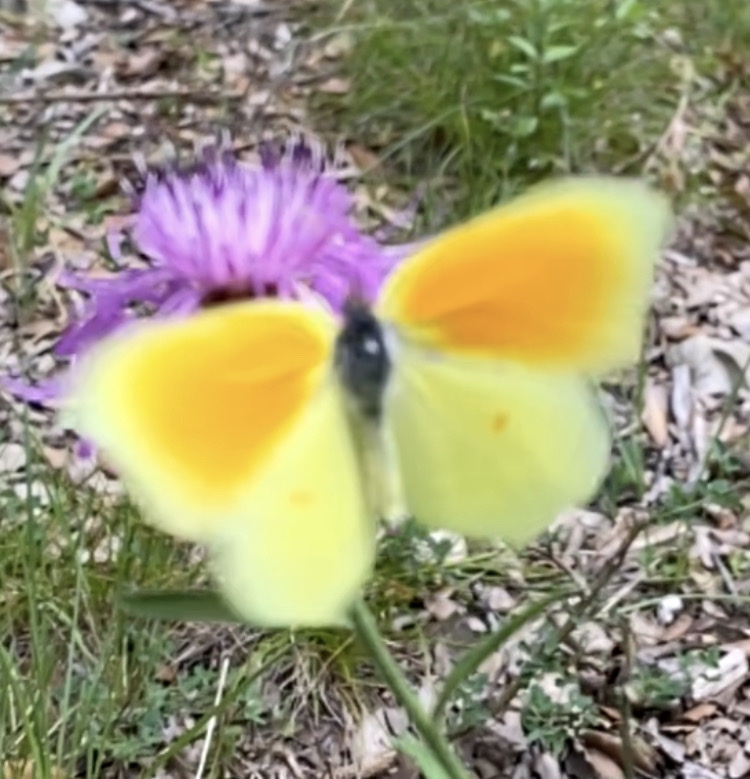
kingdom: Animalia
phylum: Arthropoda
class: Insecta
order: Lepidoptera
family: Pieridae
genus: Gonepteryx
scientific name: Gonepteryx cleopatra
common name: Cleopatra
